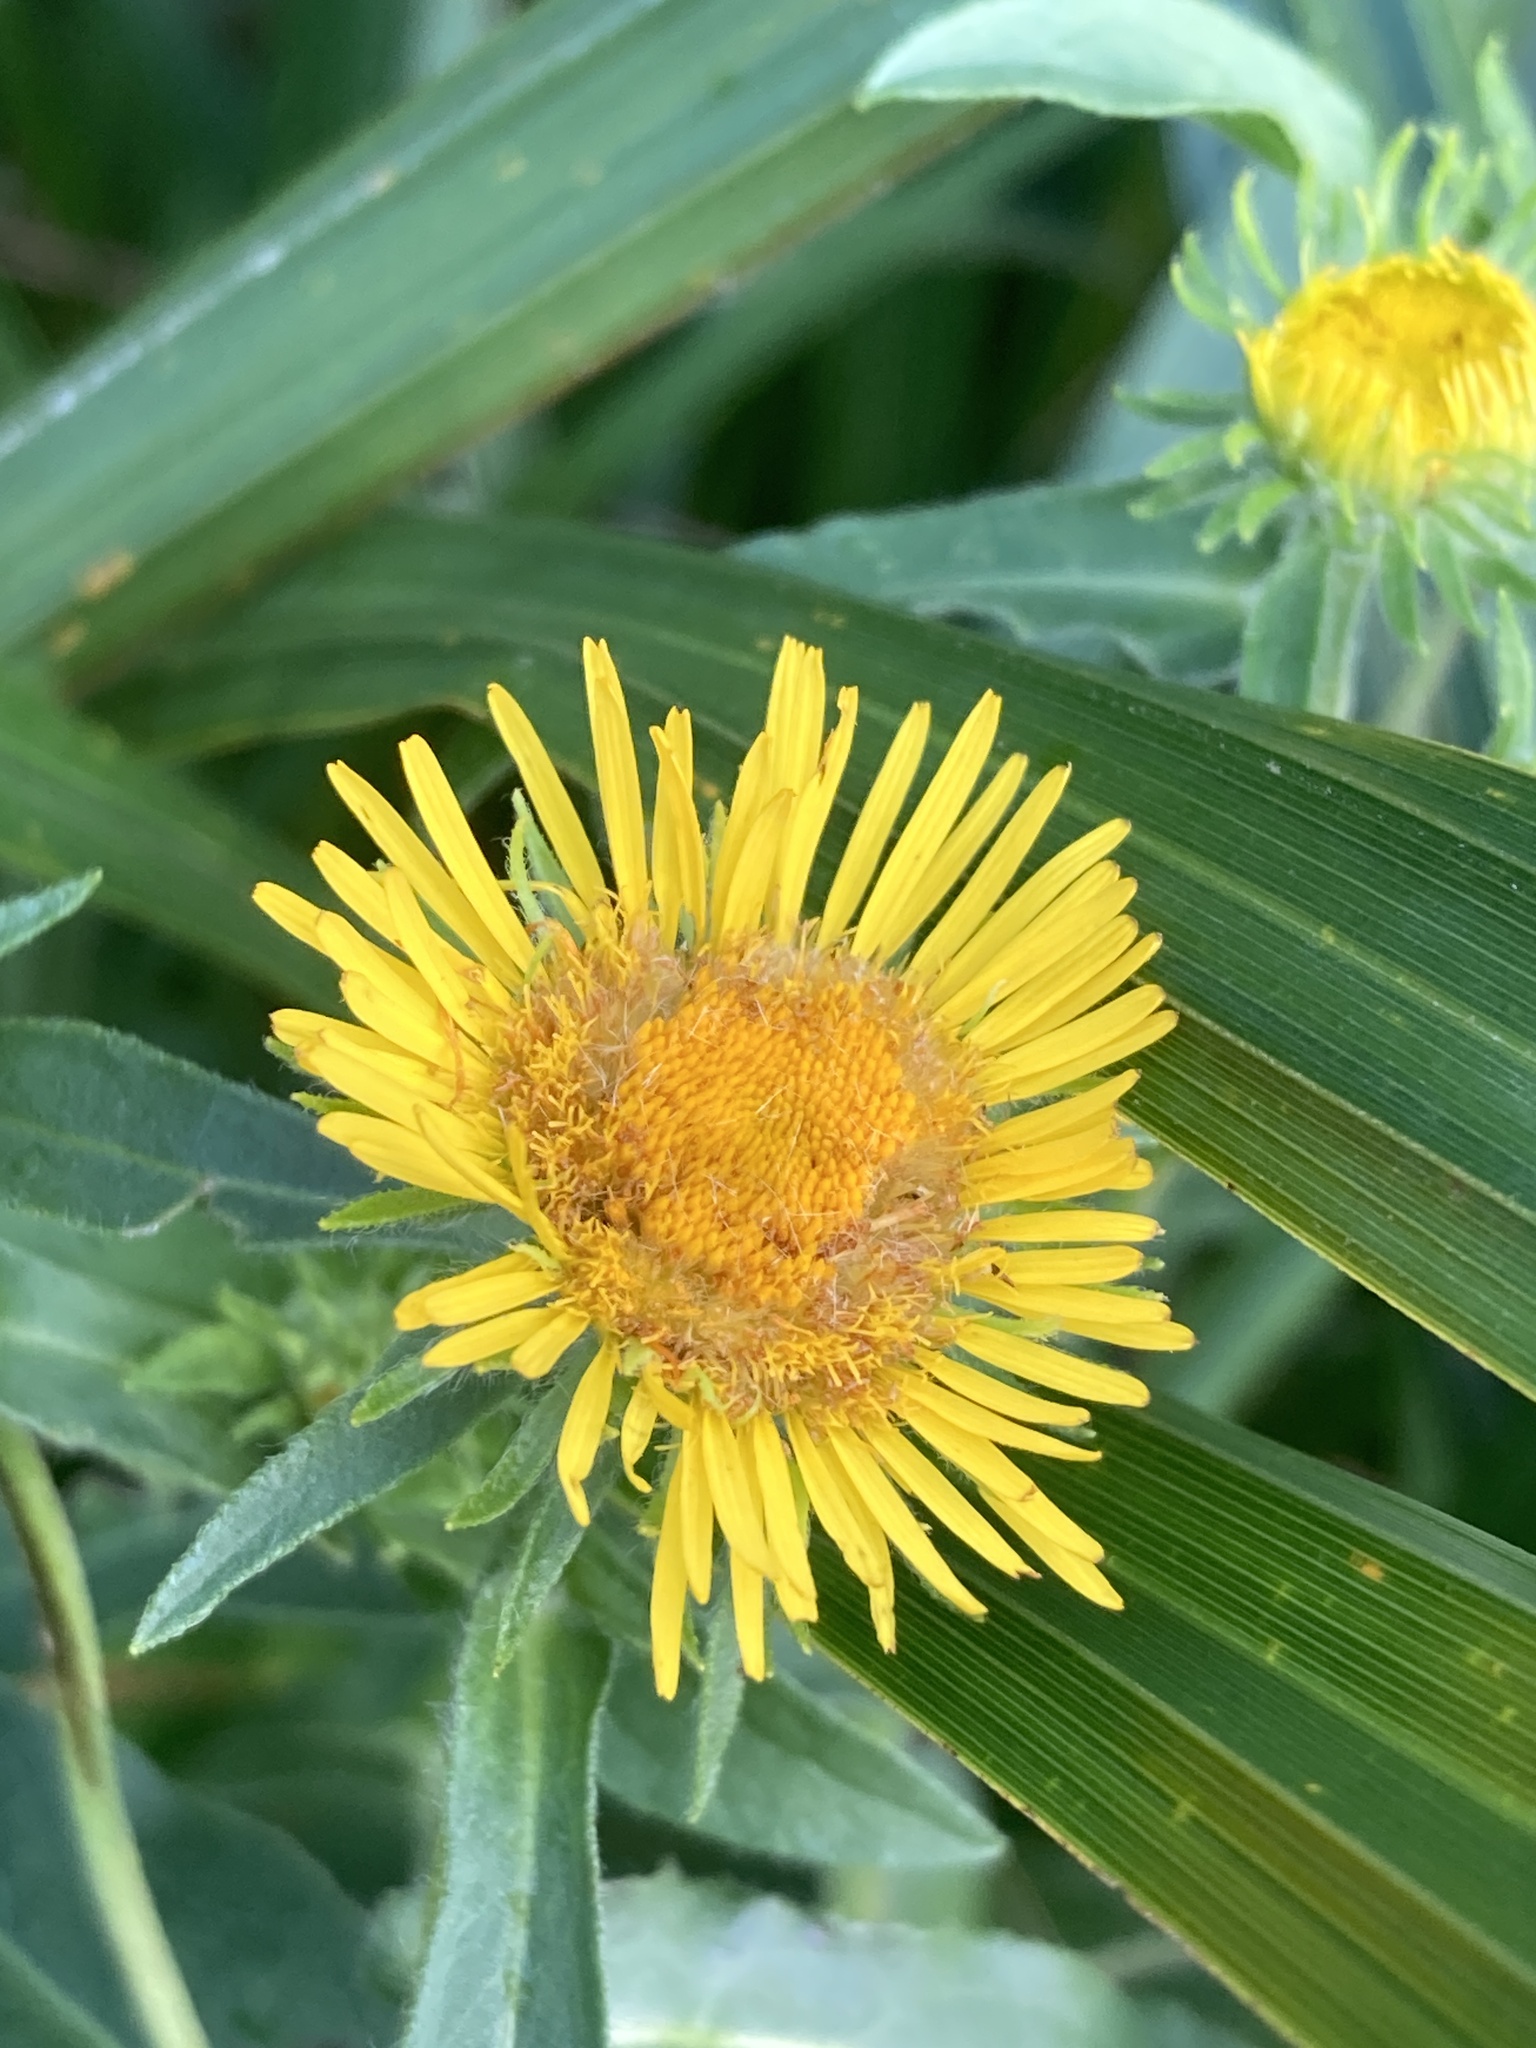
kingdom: Plantae
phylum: Tracheophyta
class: Magnoliopsida
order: Asterales
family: Asteraceae
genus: Pentanema
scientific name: Pentanema britannicum
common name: British elecampane
